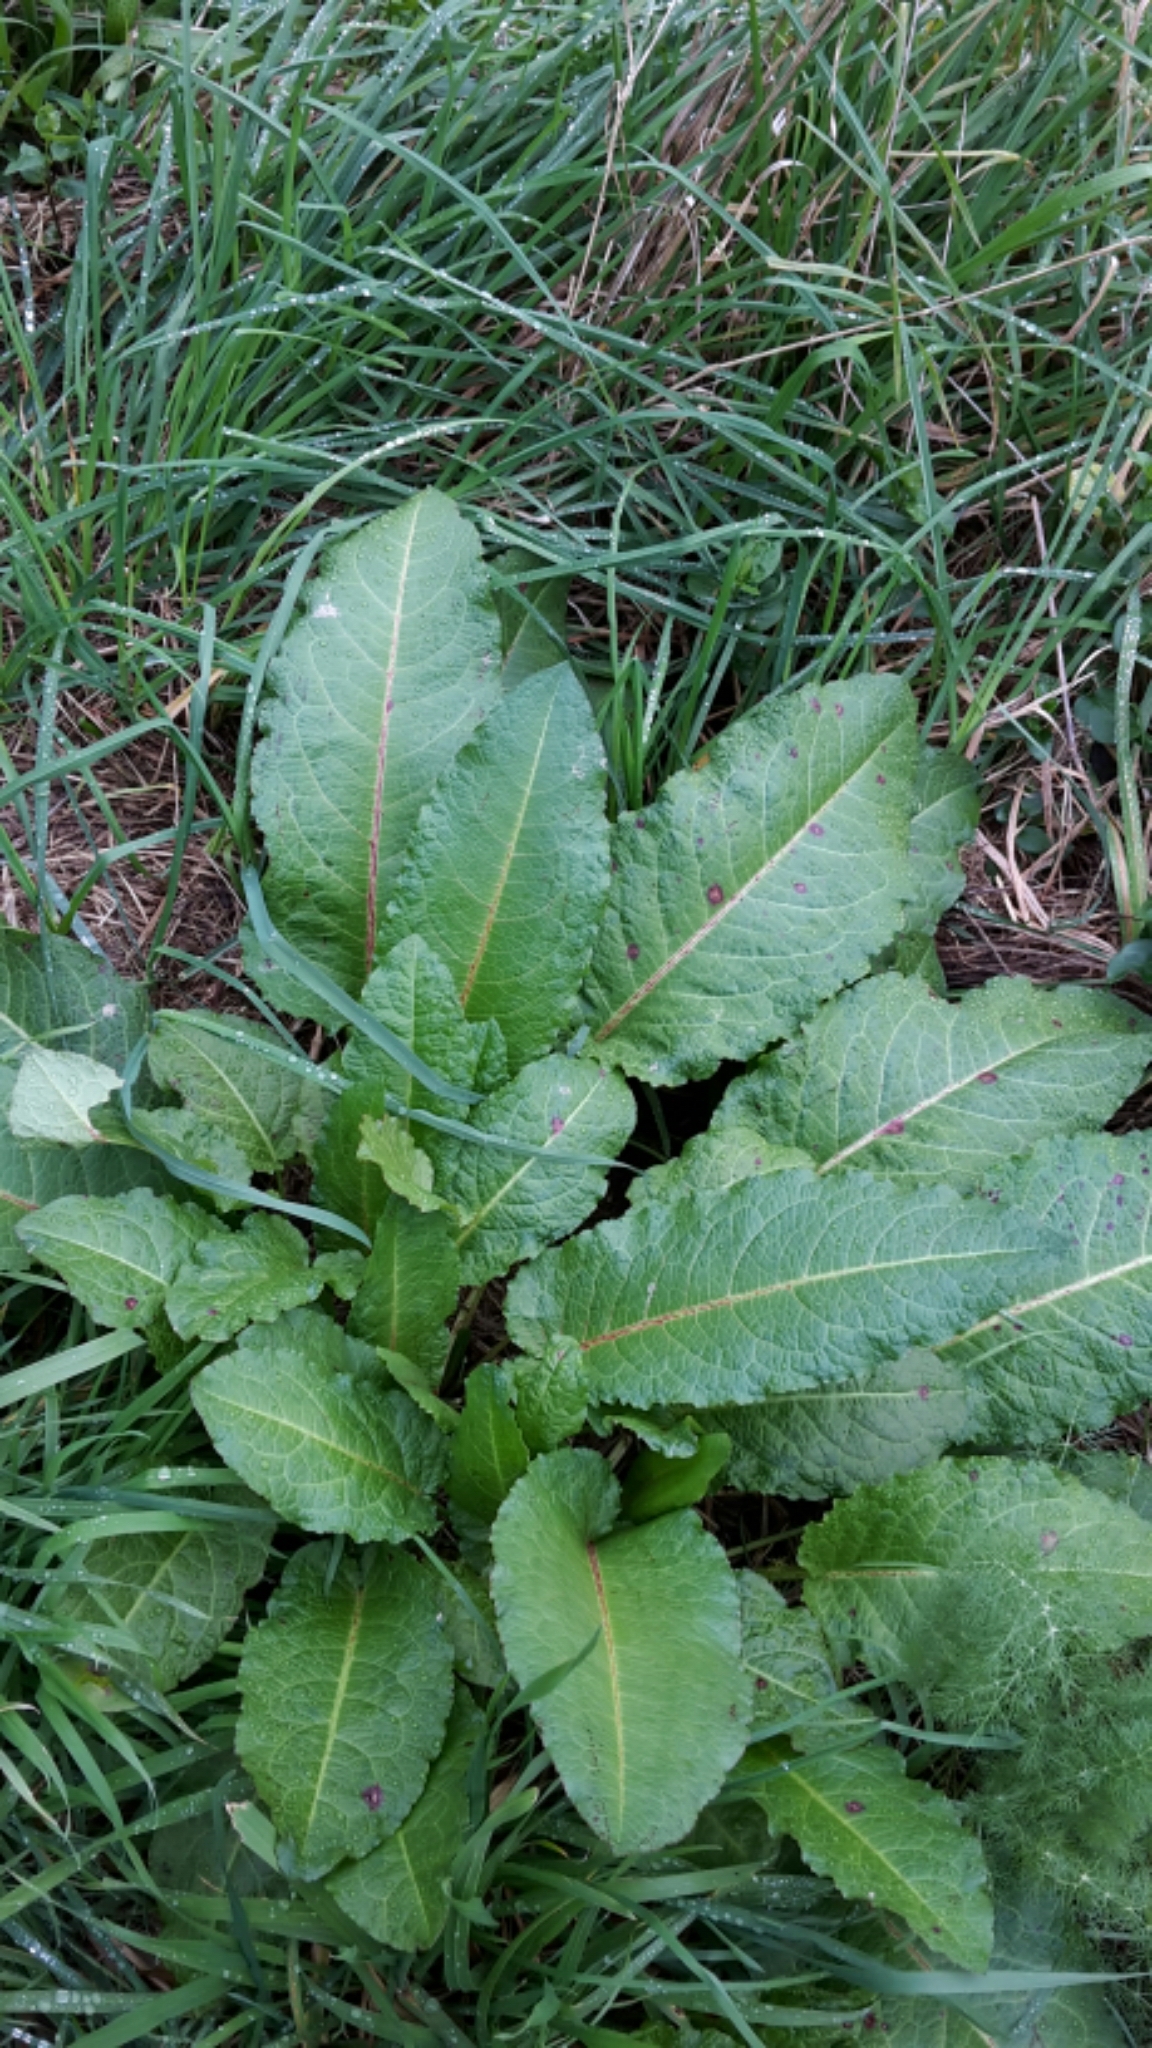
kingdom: Plantae
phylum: Tracheophyta
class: Magnoliopsida
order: Caryophyllales
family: Polygonaceae
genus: Rumex
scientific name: Rumex obtusifolius
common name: Bitter dock
